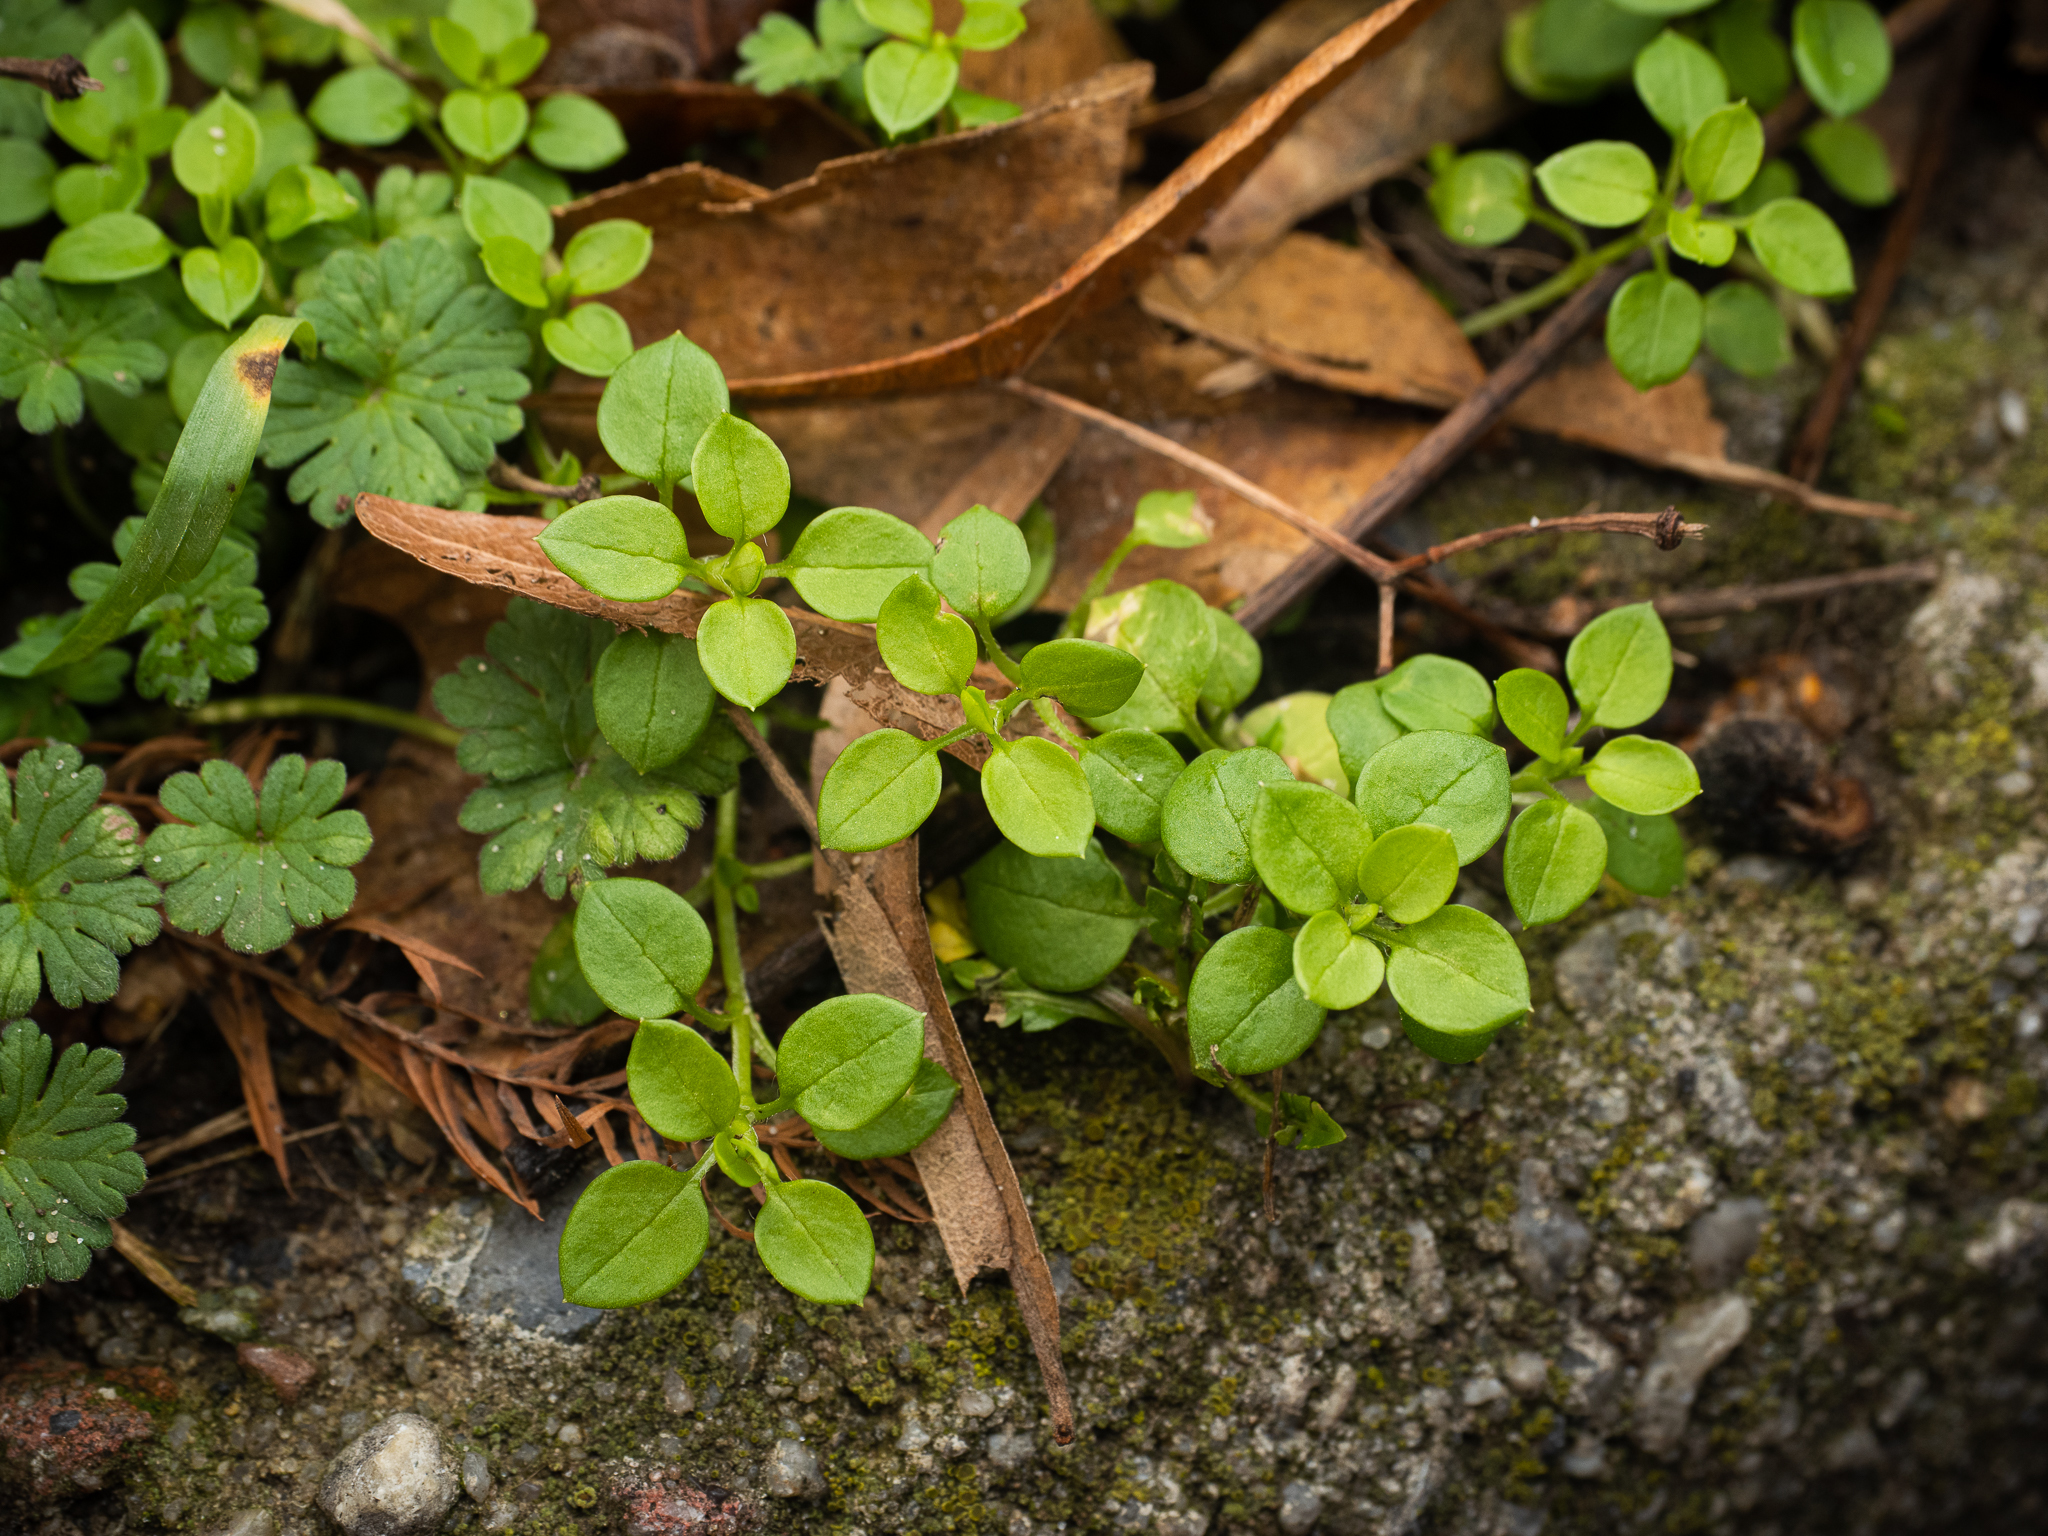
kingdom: Plantae
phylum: Tracheophyta
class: Magnoliopsida
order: Caryophyllales
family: Caryophyllaceae
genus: Stellaria
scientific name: Stellaria media
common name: Common chickweed
